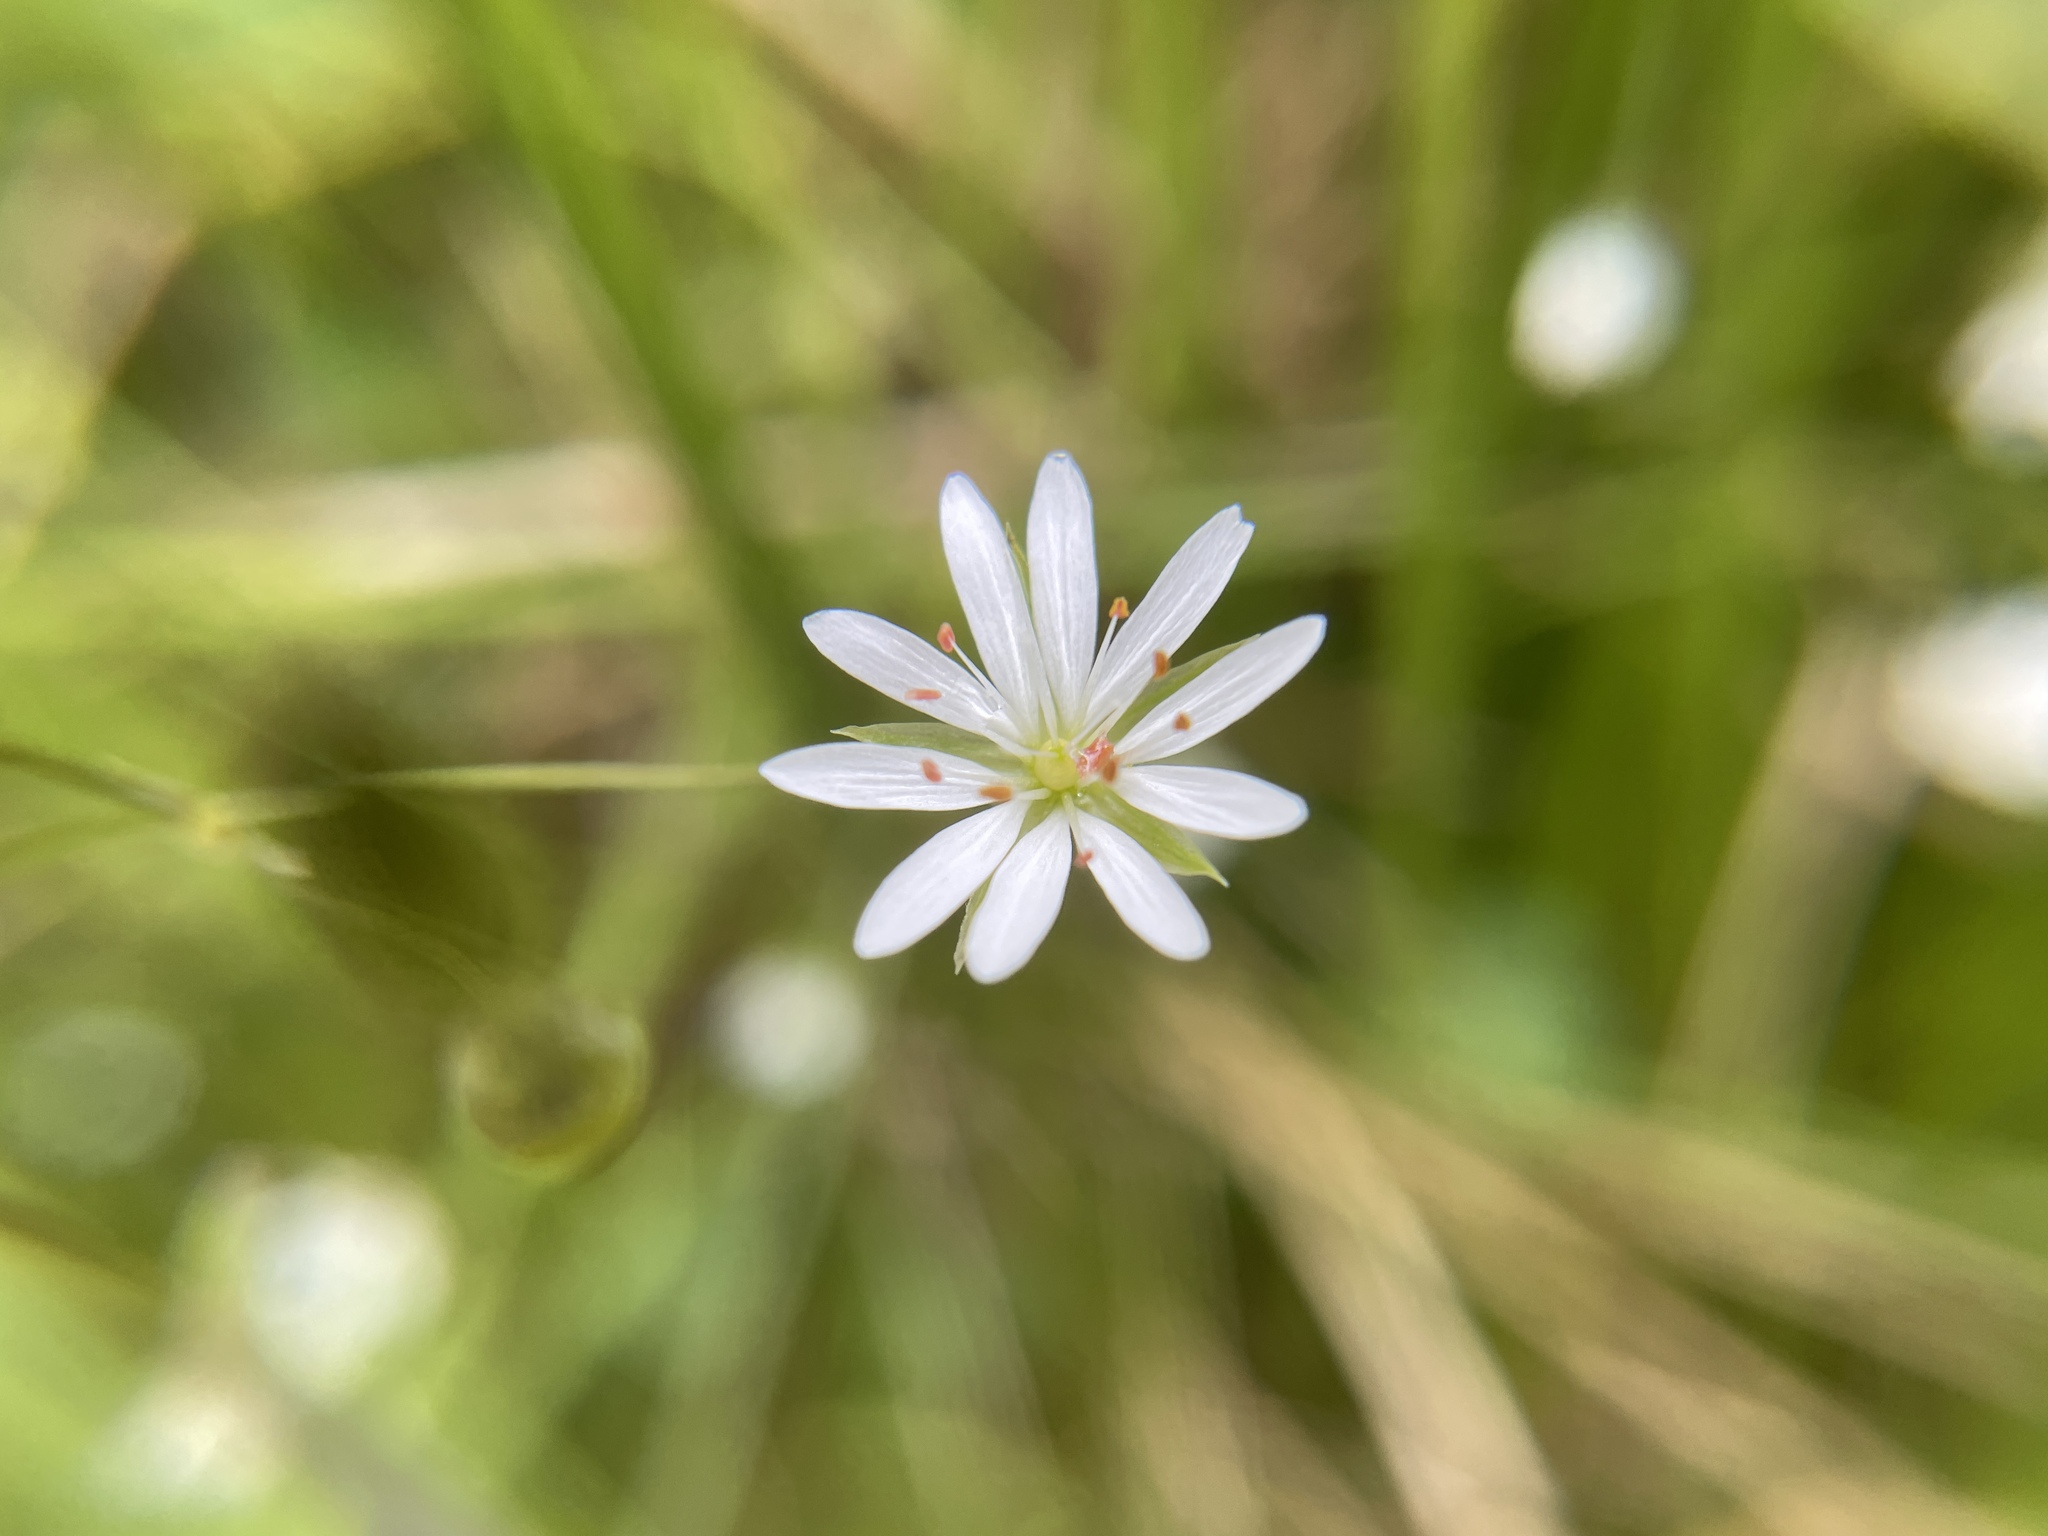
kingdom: Plantae
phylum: Tracheophyta
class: Magnoliopsida
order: Caryophyllales
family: Caryophyllaceae
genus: Stellaria
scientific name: Stellaria graminea
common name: Grass-like starwort
